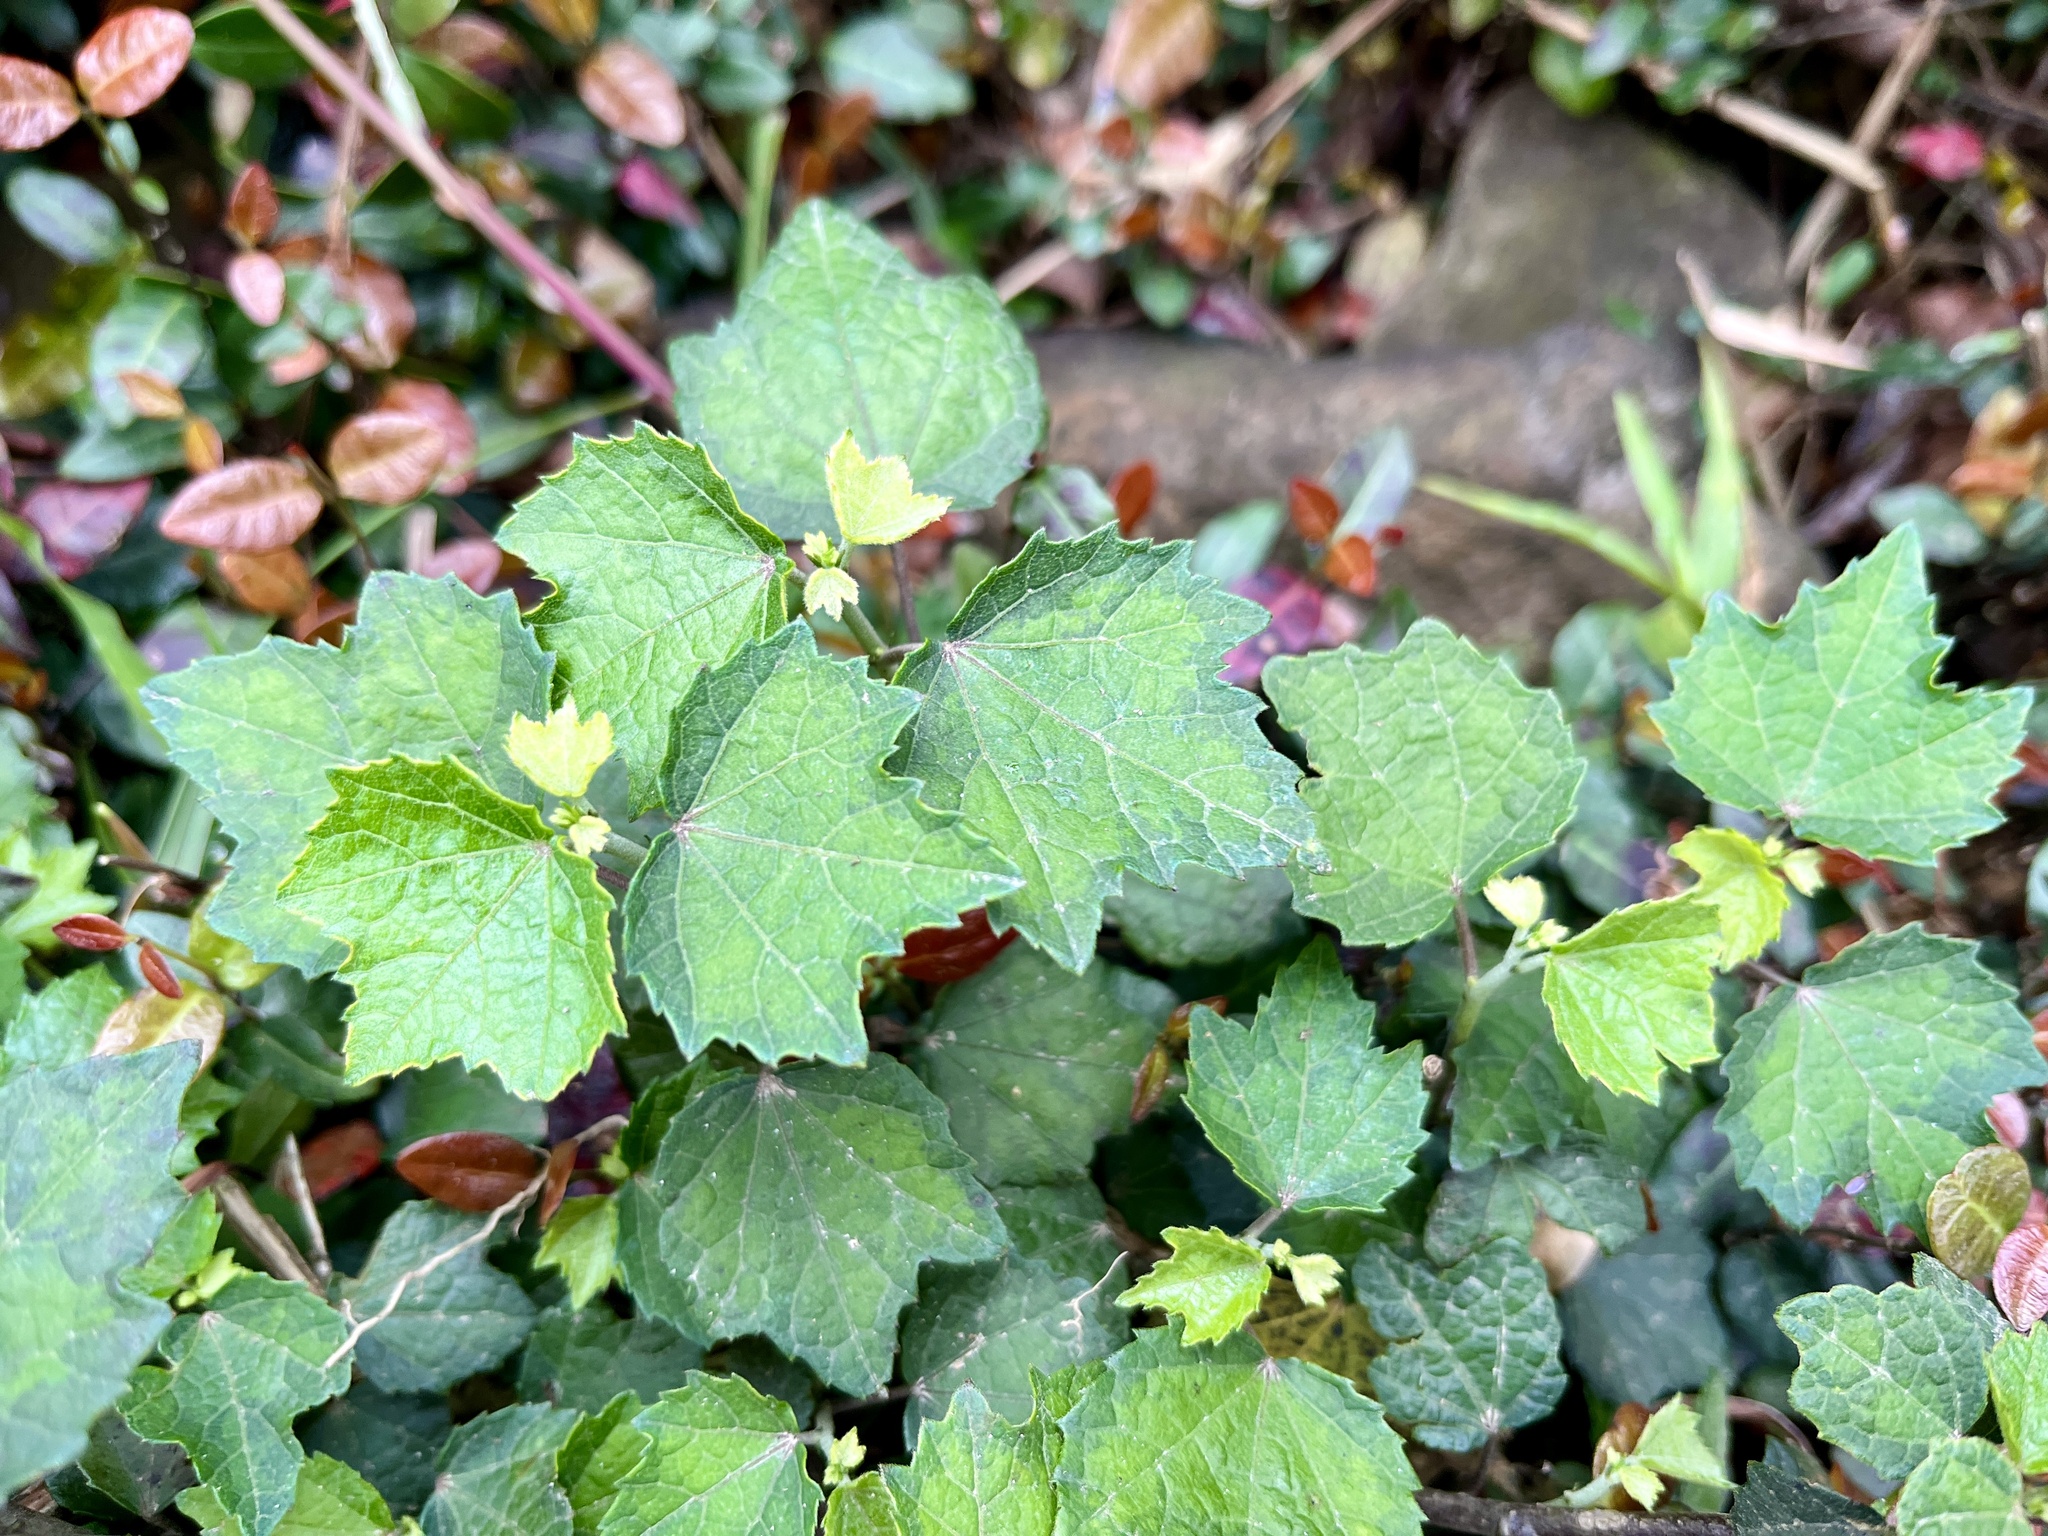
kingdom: Plantae
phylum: Tracheophyta
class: Magnoliopsida
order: Malvales
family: Malvaceae
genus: Urena
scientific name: Urena procumbens
